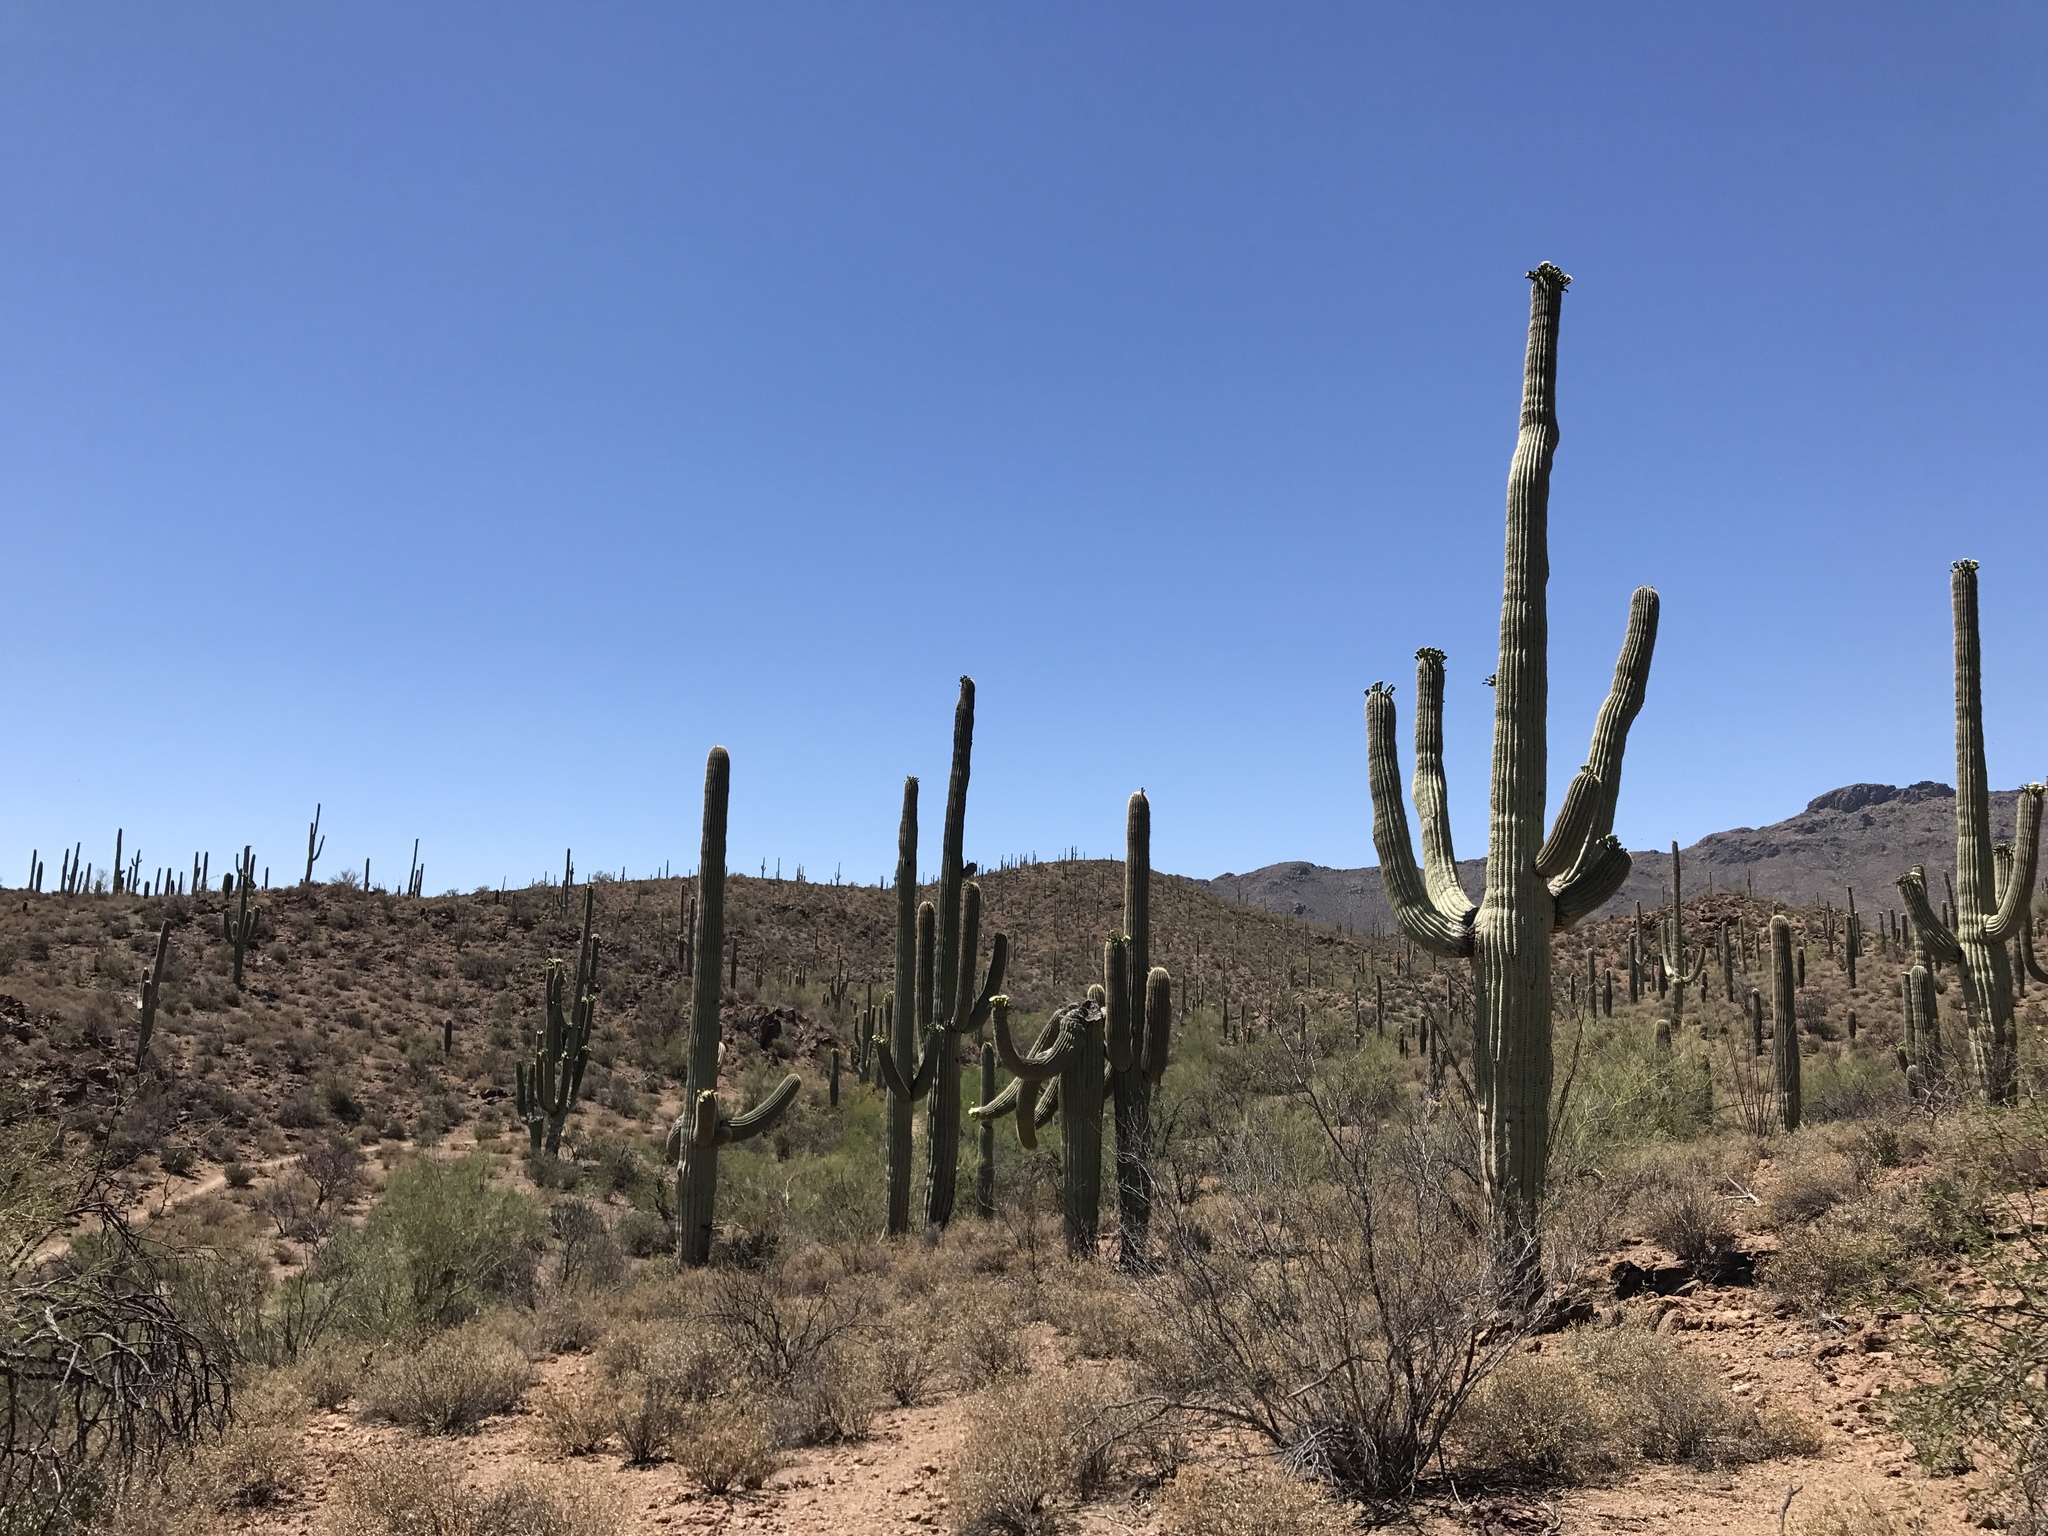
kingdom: Plantae
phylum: Tracheophyta
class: Magnoliopsida
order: Caryophyllales
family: Cactaceae
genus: Carnegiea
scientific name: Carnegiea gigantea
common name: Saguaro
